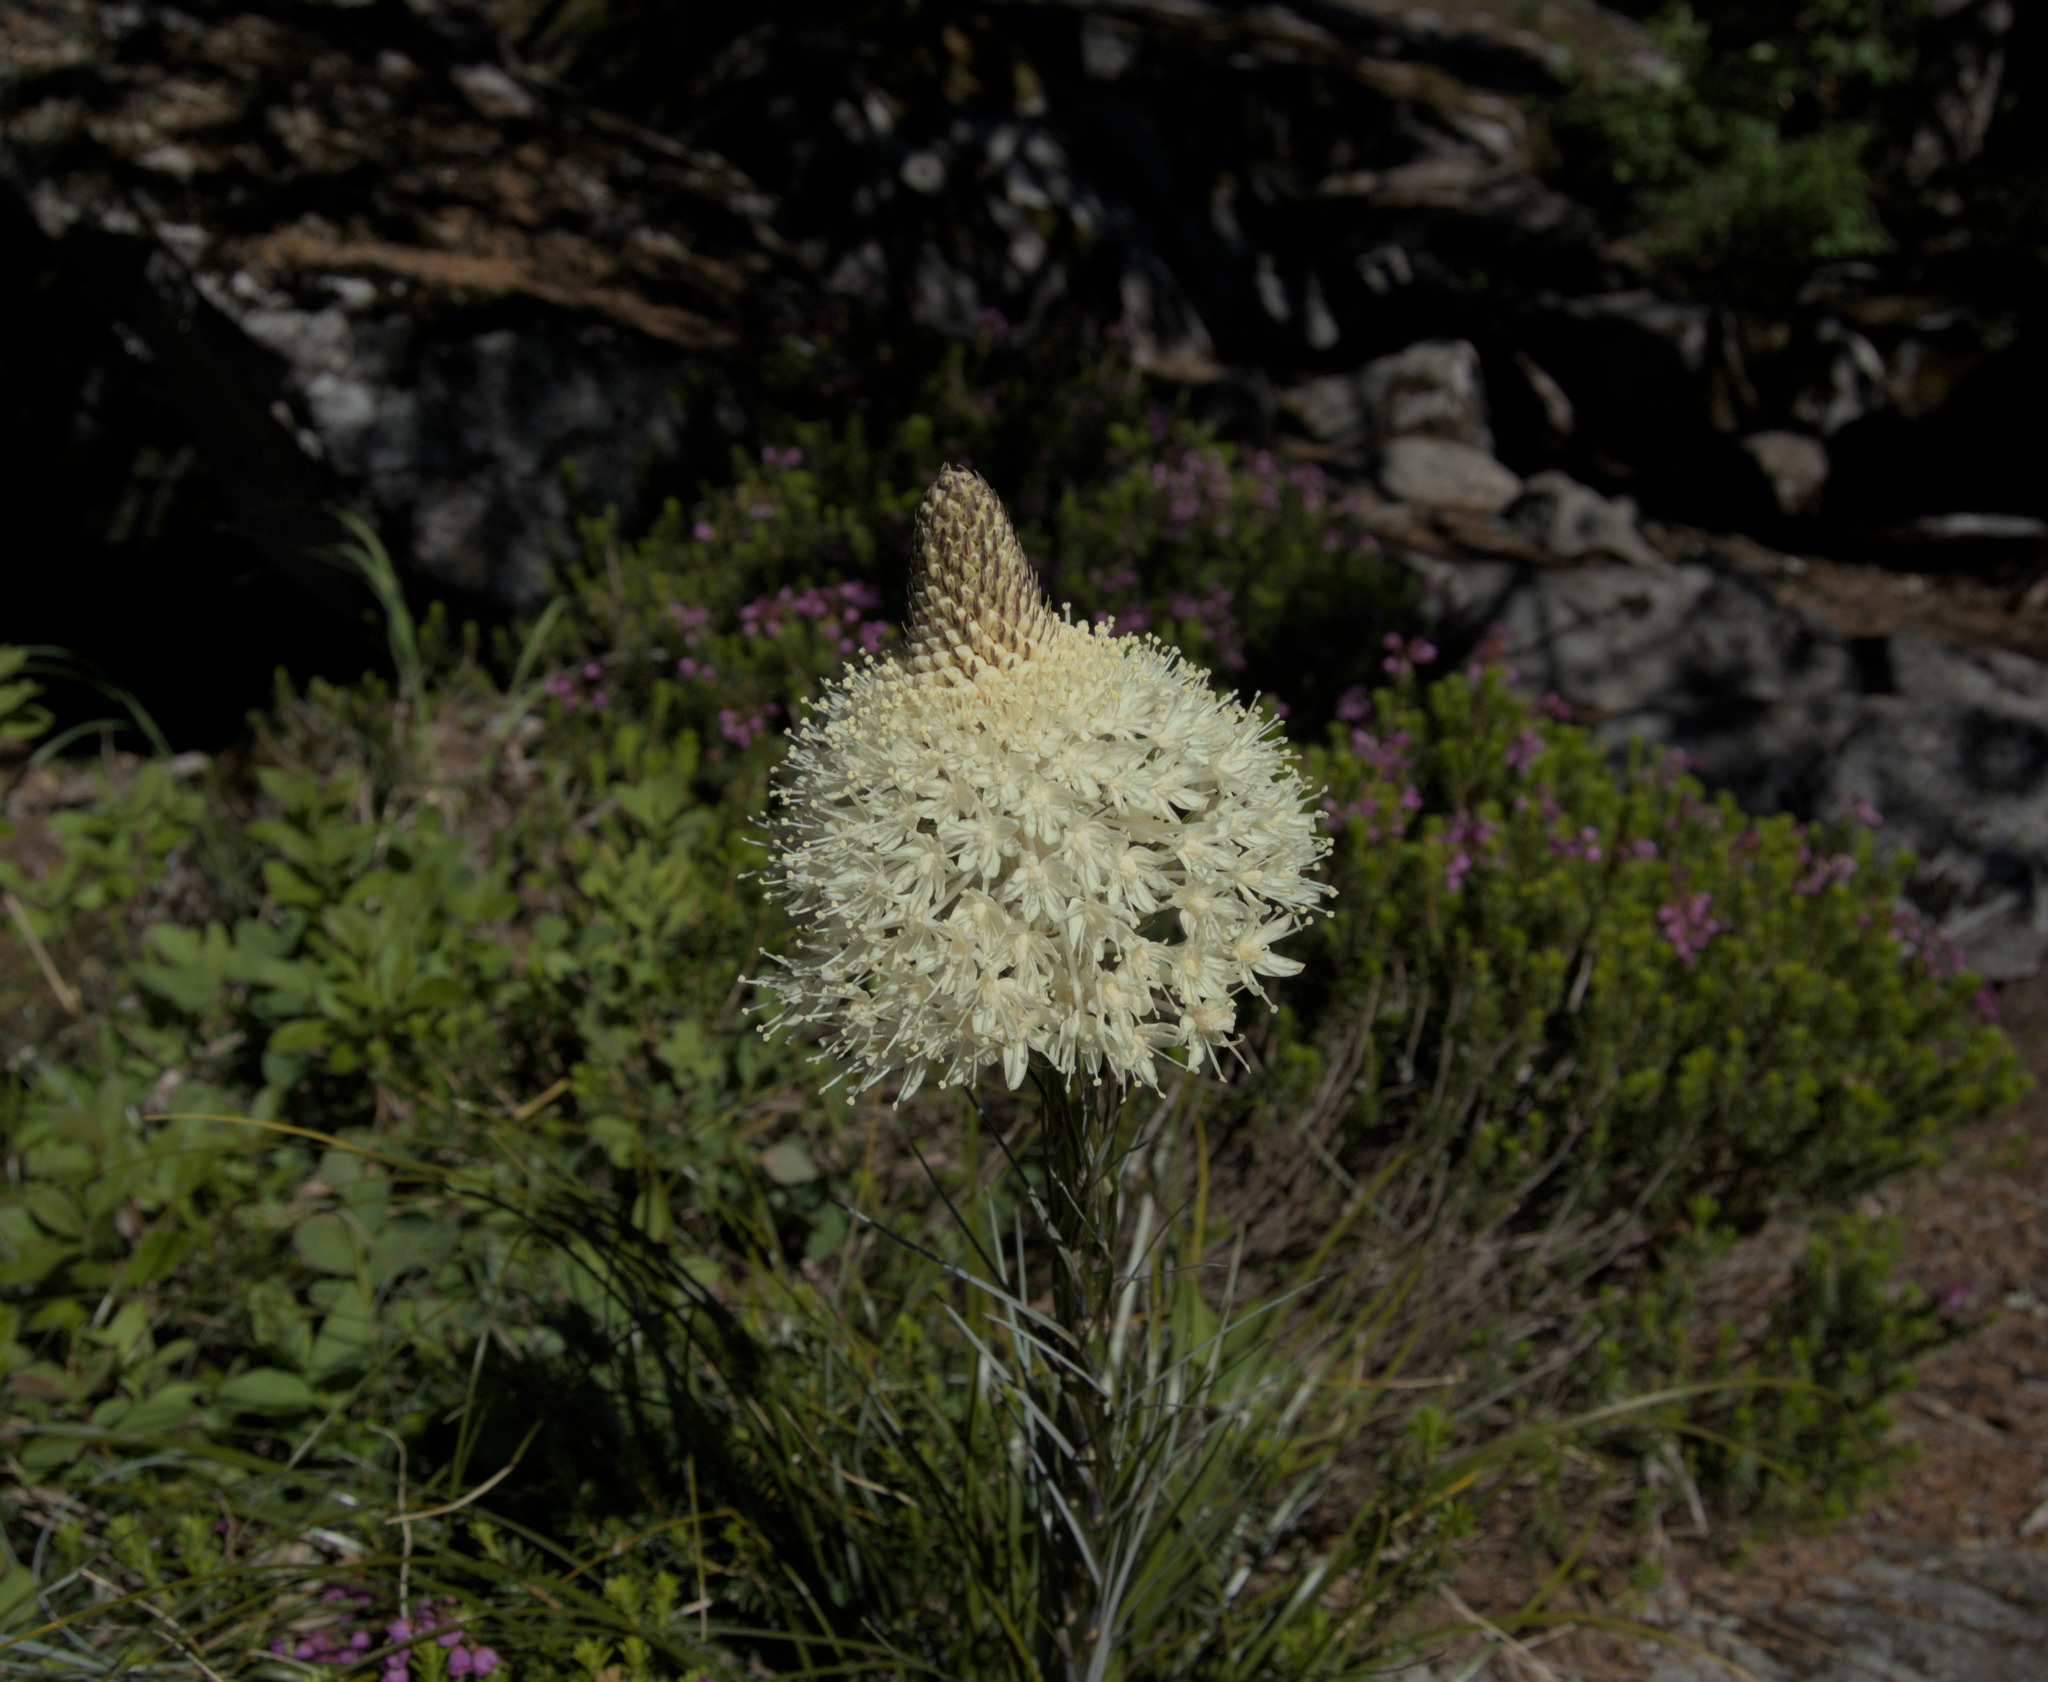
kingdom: Plantae
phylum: Tracheophyta
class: Liliopsida
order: Liliales
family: Melanthiaceae
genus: Xerophyllum
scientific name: Xerophyllum tenax
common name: Bear-grass
